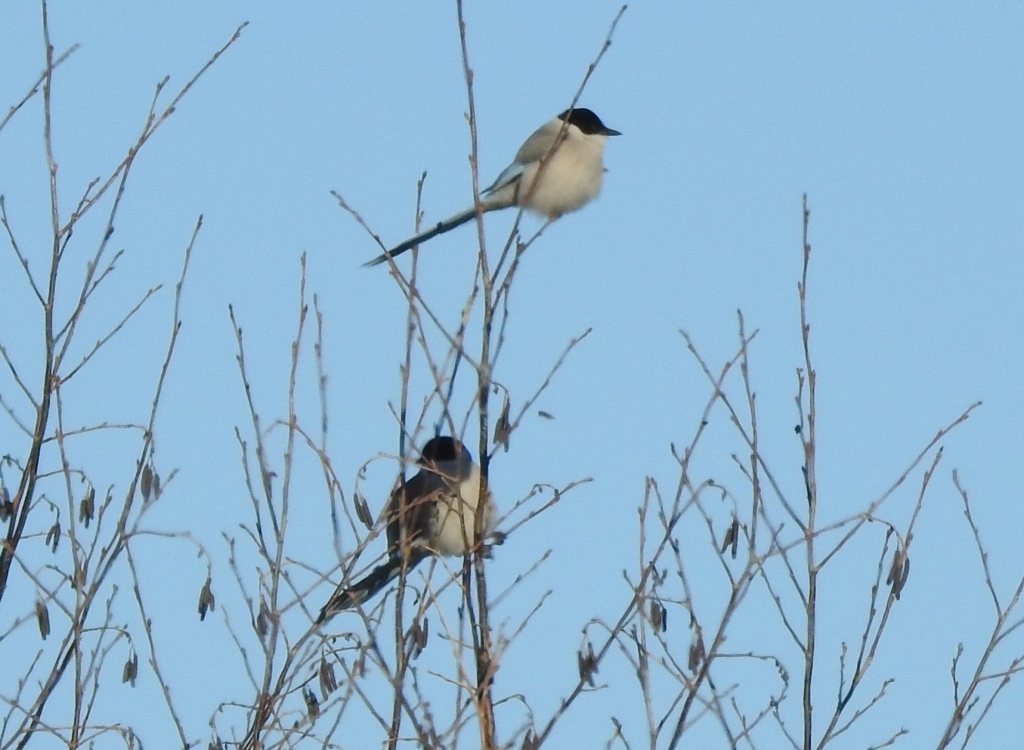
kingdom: Animalia
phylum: Chordata
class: Aves
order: Passeriformes
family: Corvidae
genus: Cyanopica
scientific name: Cyanopica cyanus
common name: Azure-winged magpie
